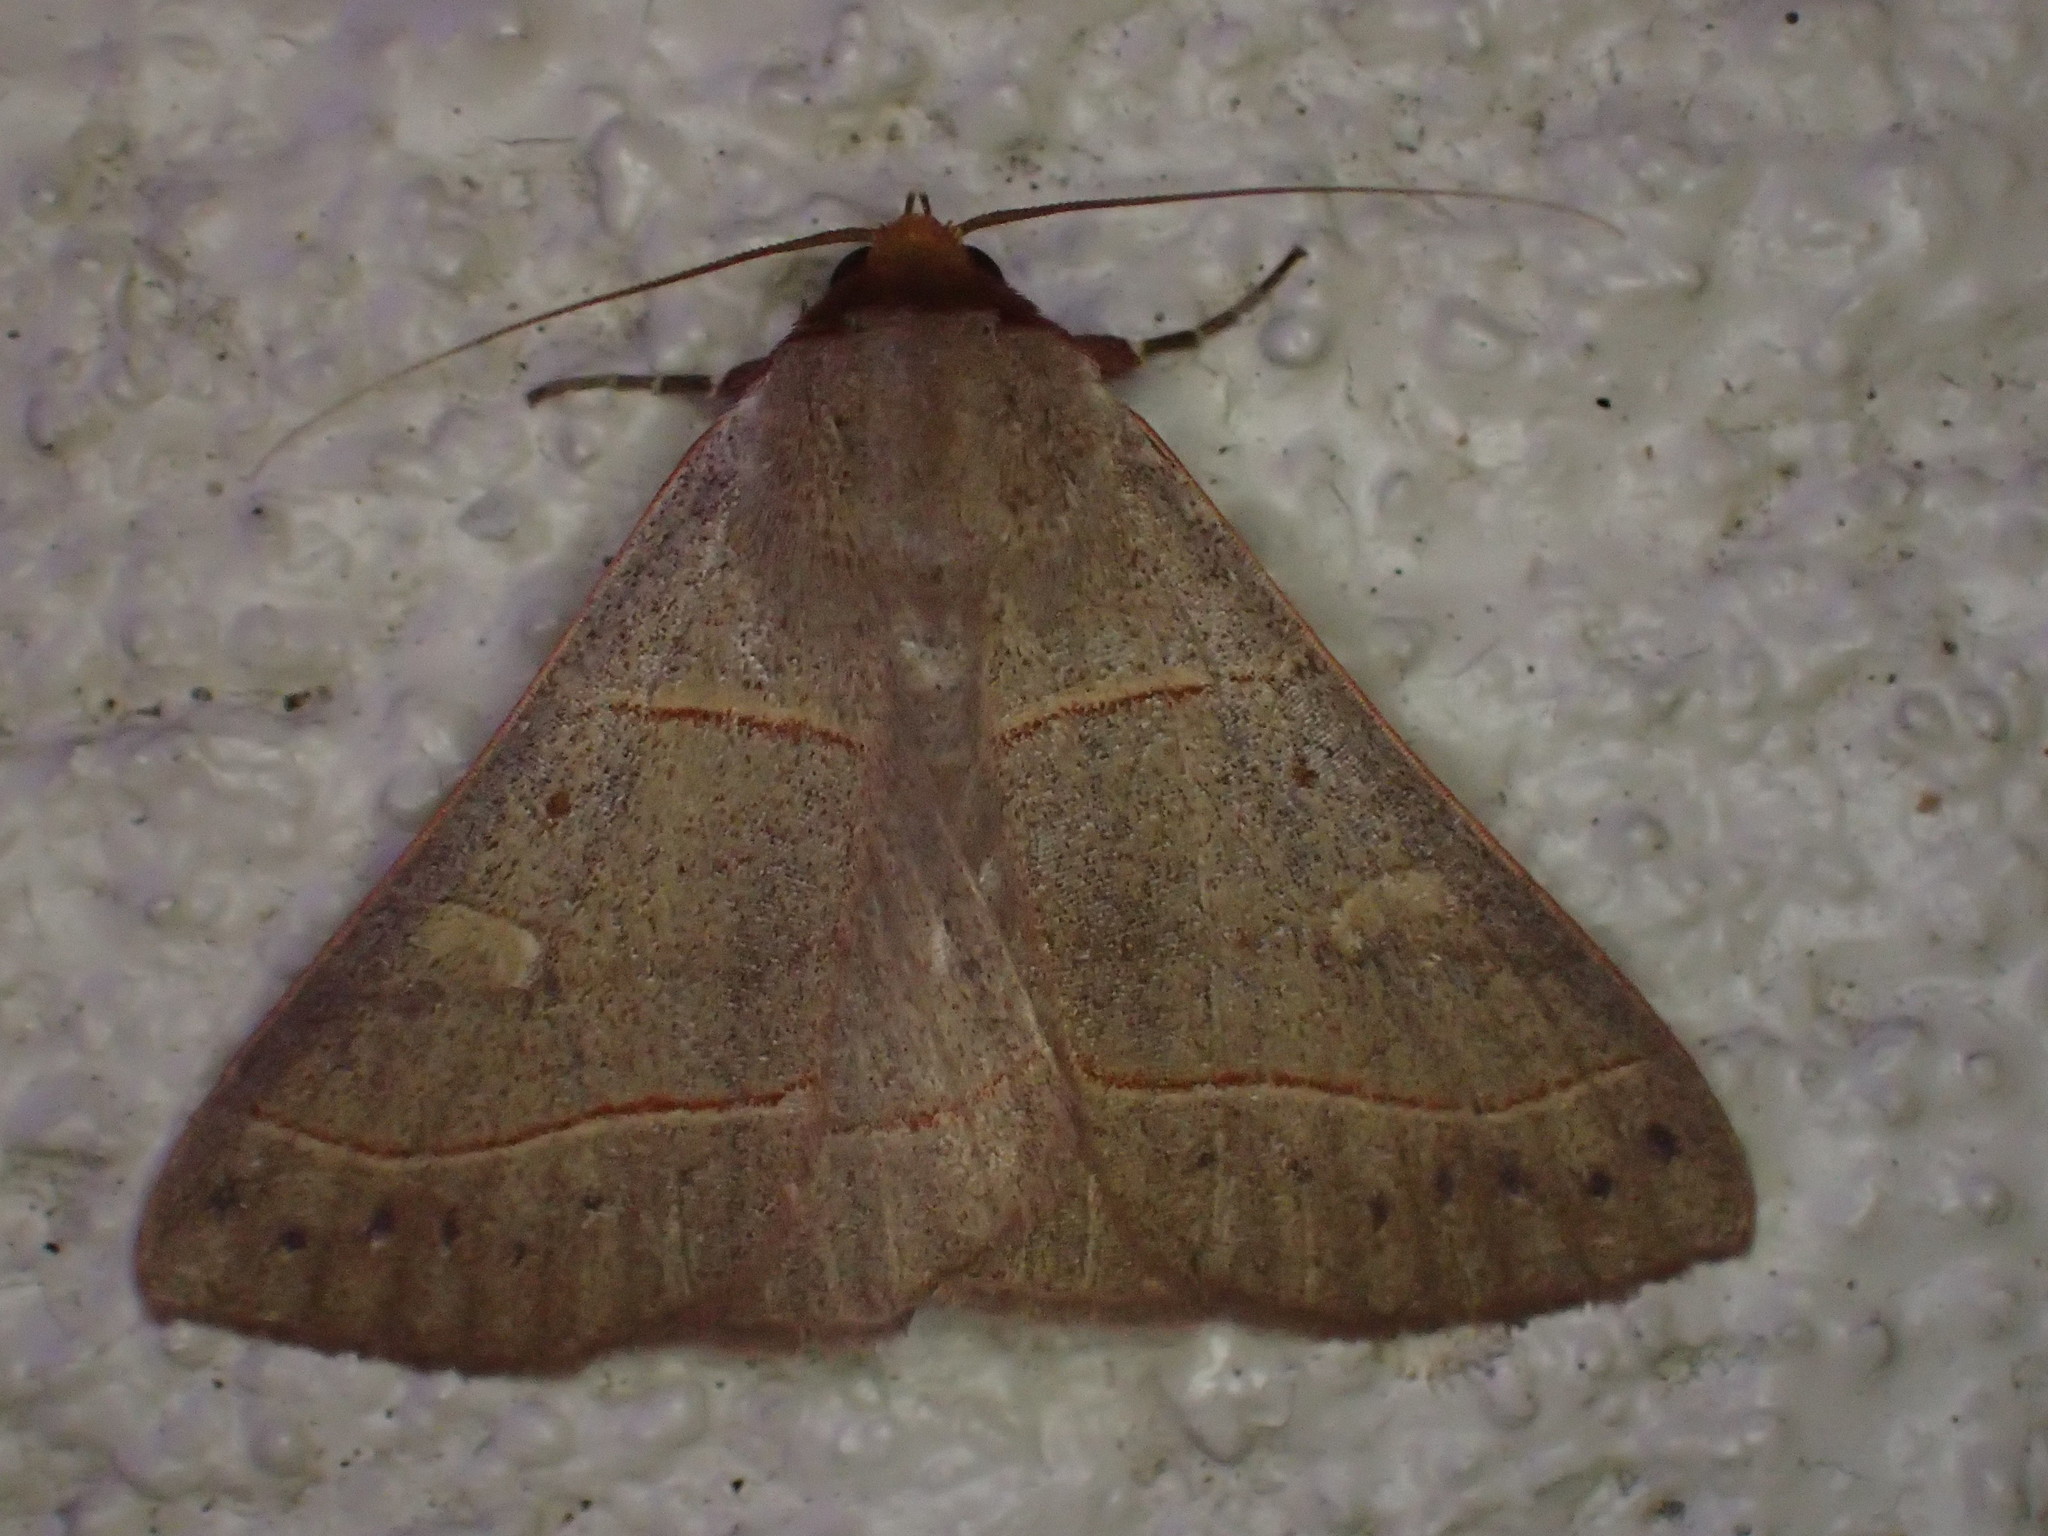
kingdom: Animalia
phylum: Arthropoda
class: Insecta
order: Lepidoptera
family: Erebidae
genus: Panopoda
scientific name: Panopoda rufimargo
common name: Red-lined panopoda moth
